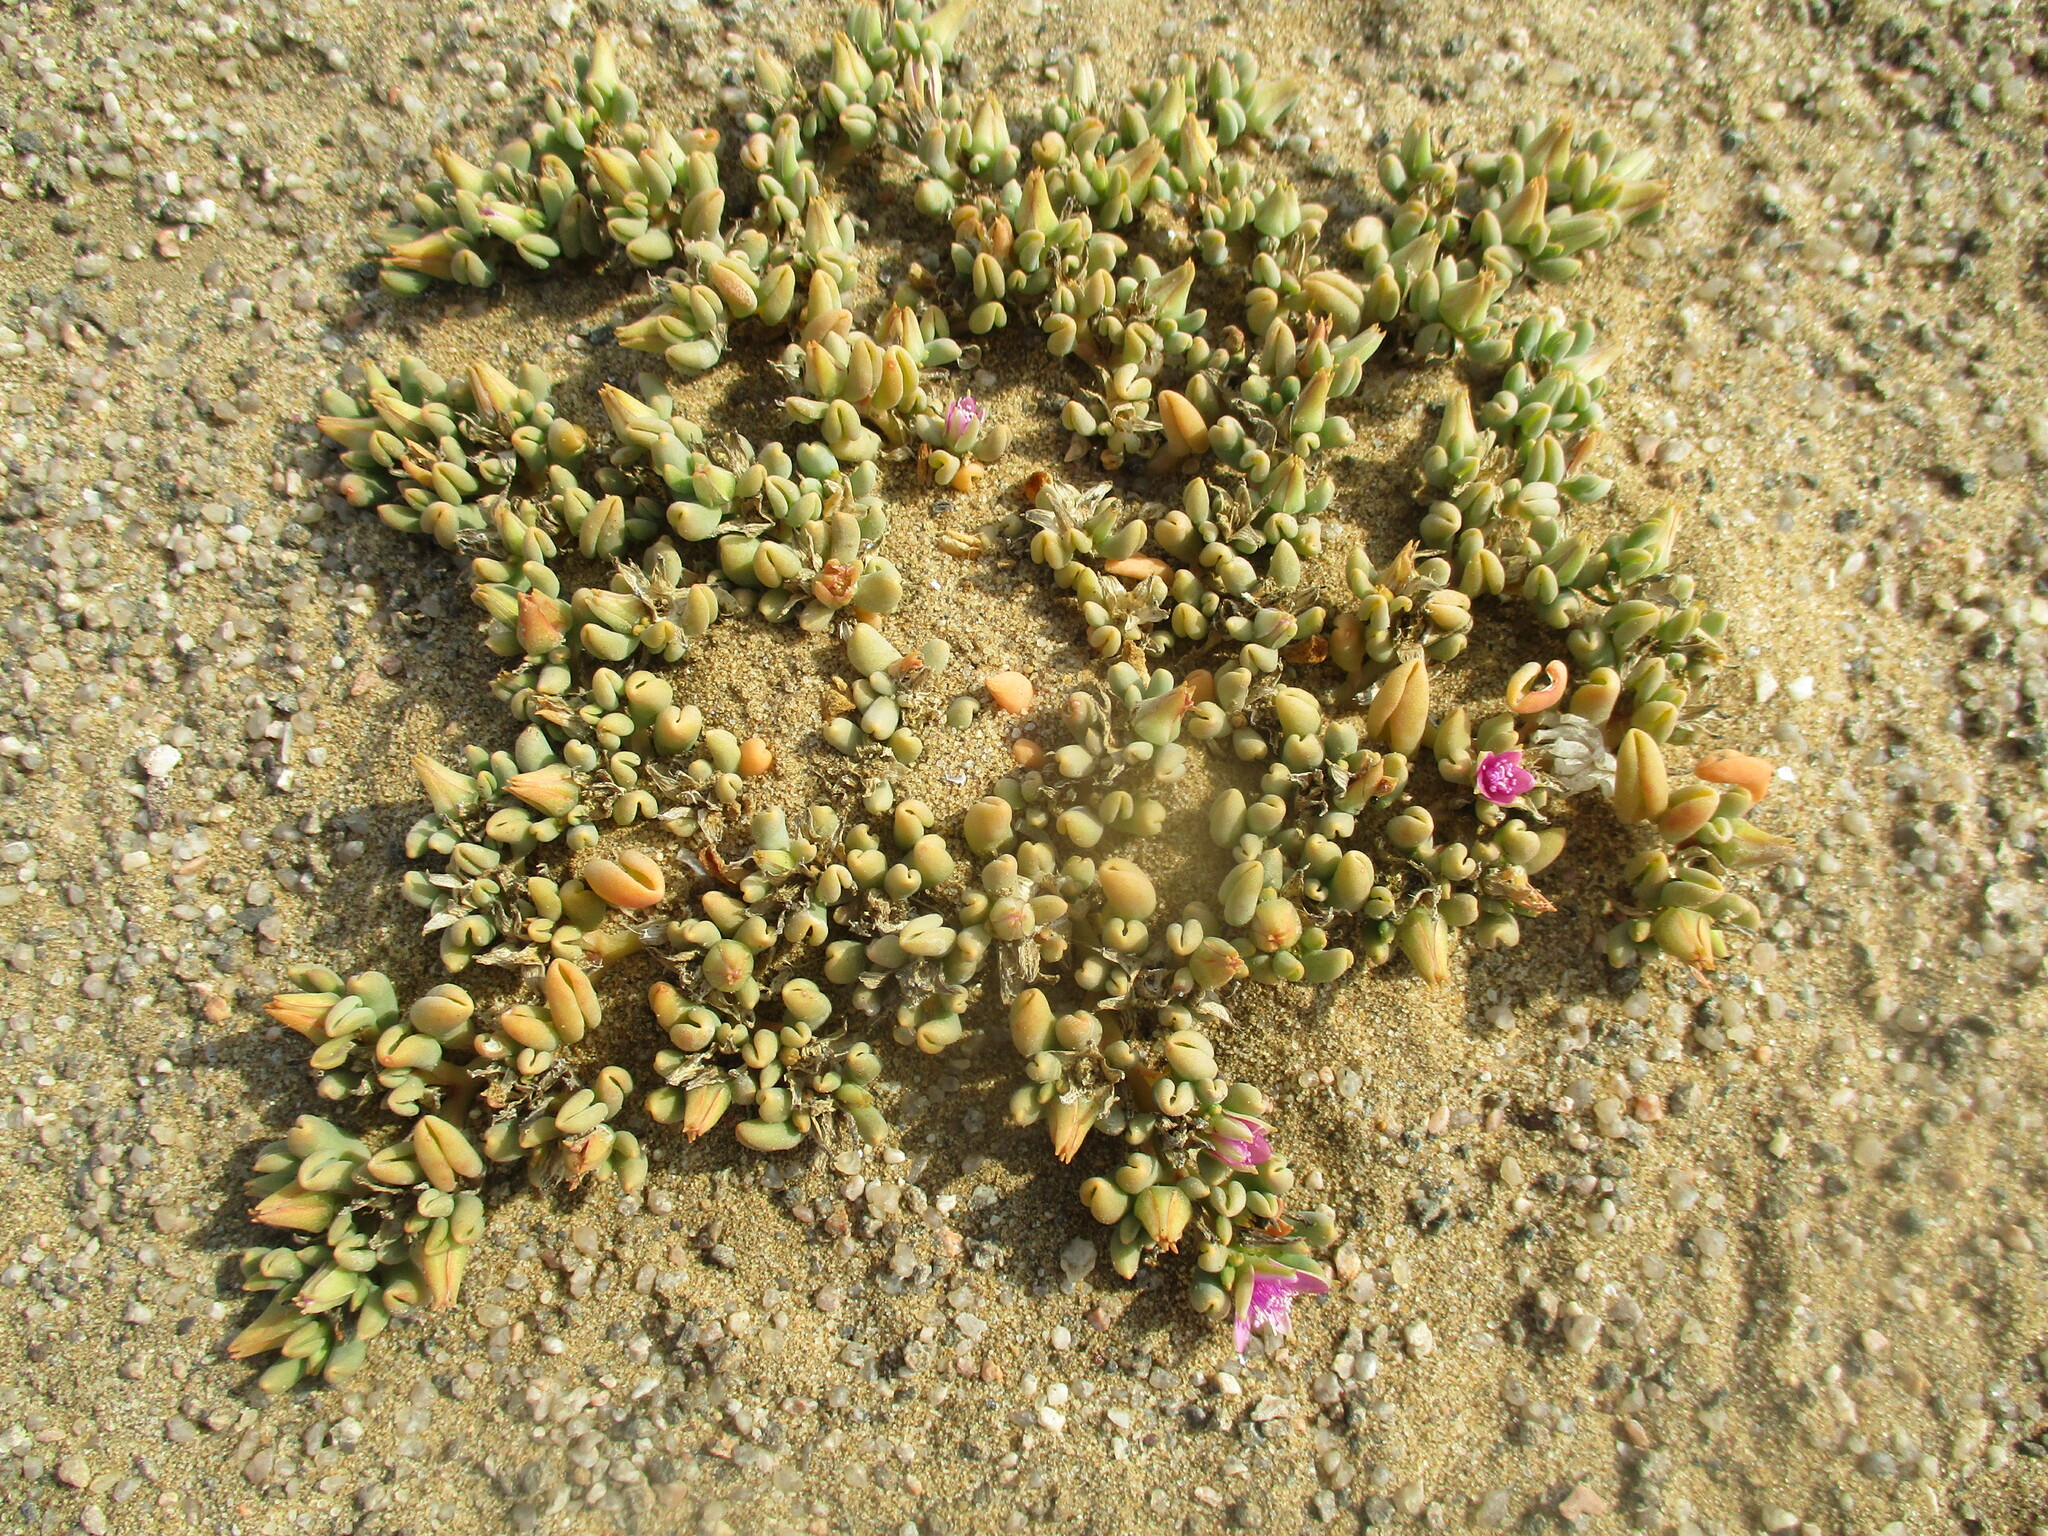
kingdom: Plantae
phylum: Tracheophyta
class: Magnoliopsida
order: Caryophyllales
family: Aizoaceae
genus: Sesuvium
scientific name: Sesuvium sesuvioides
